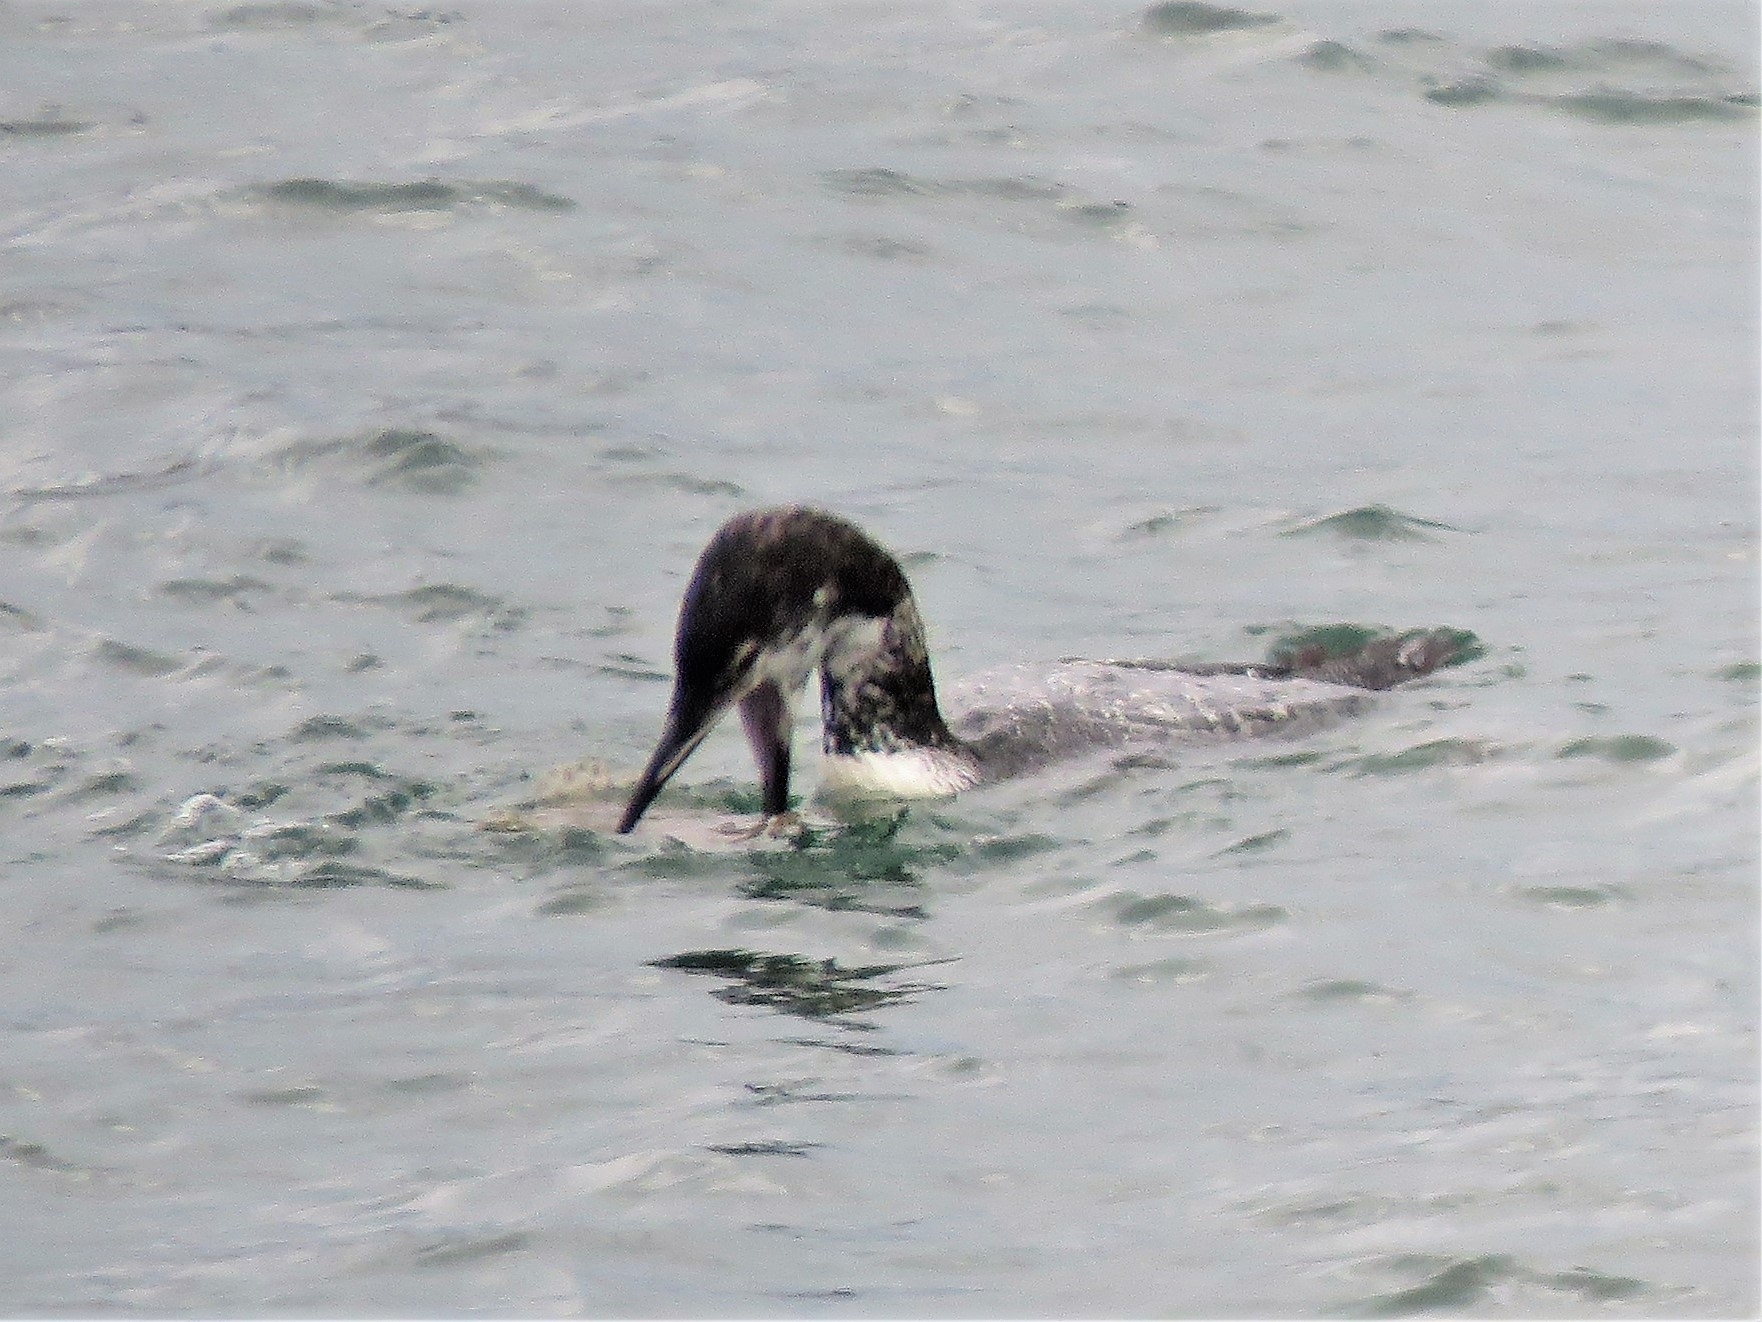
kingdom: Animalia
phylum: Chordata
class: Aves
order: Gaviiformes
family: Gaviidae
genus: Gavia
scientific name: Gavia immer
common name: Common loon
